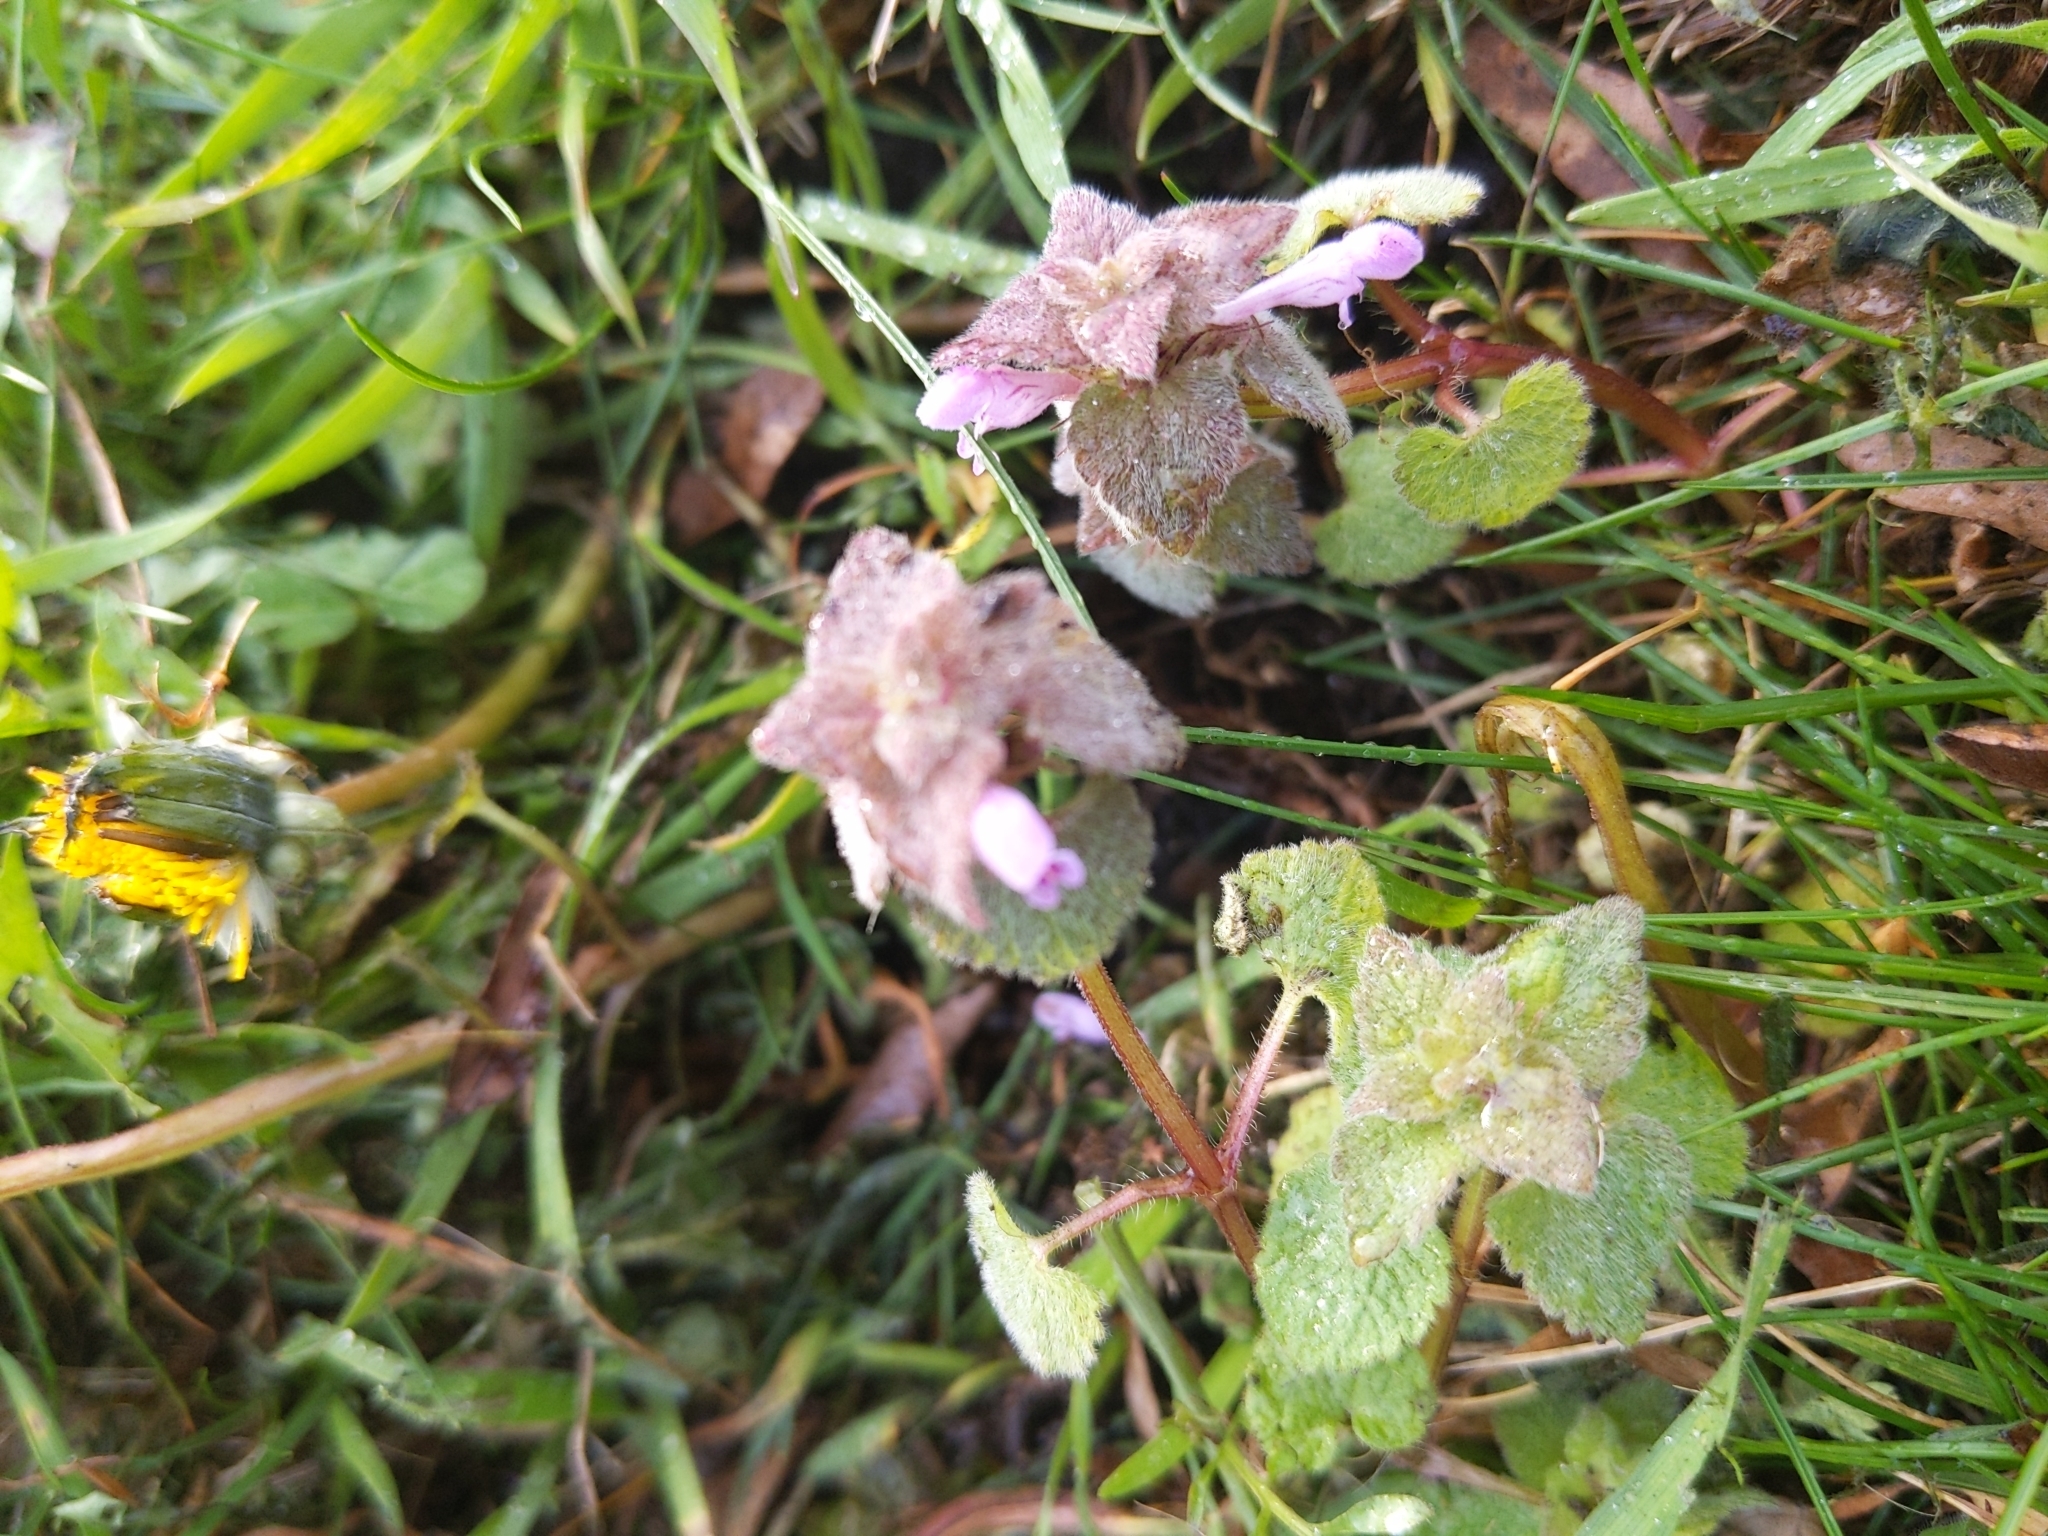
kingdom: Plantae
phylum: Tracheophyta
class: Magnoliopsida
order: Lamiales
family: Lamiaceae
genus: Lamium
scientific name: Lamium purpureum
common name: Red dead-nettle
